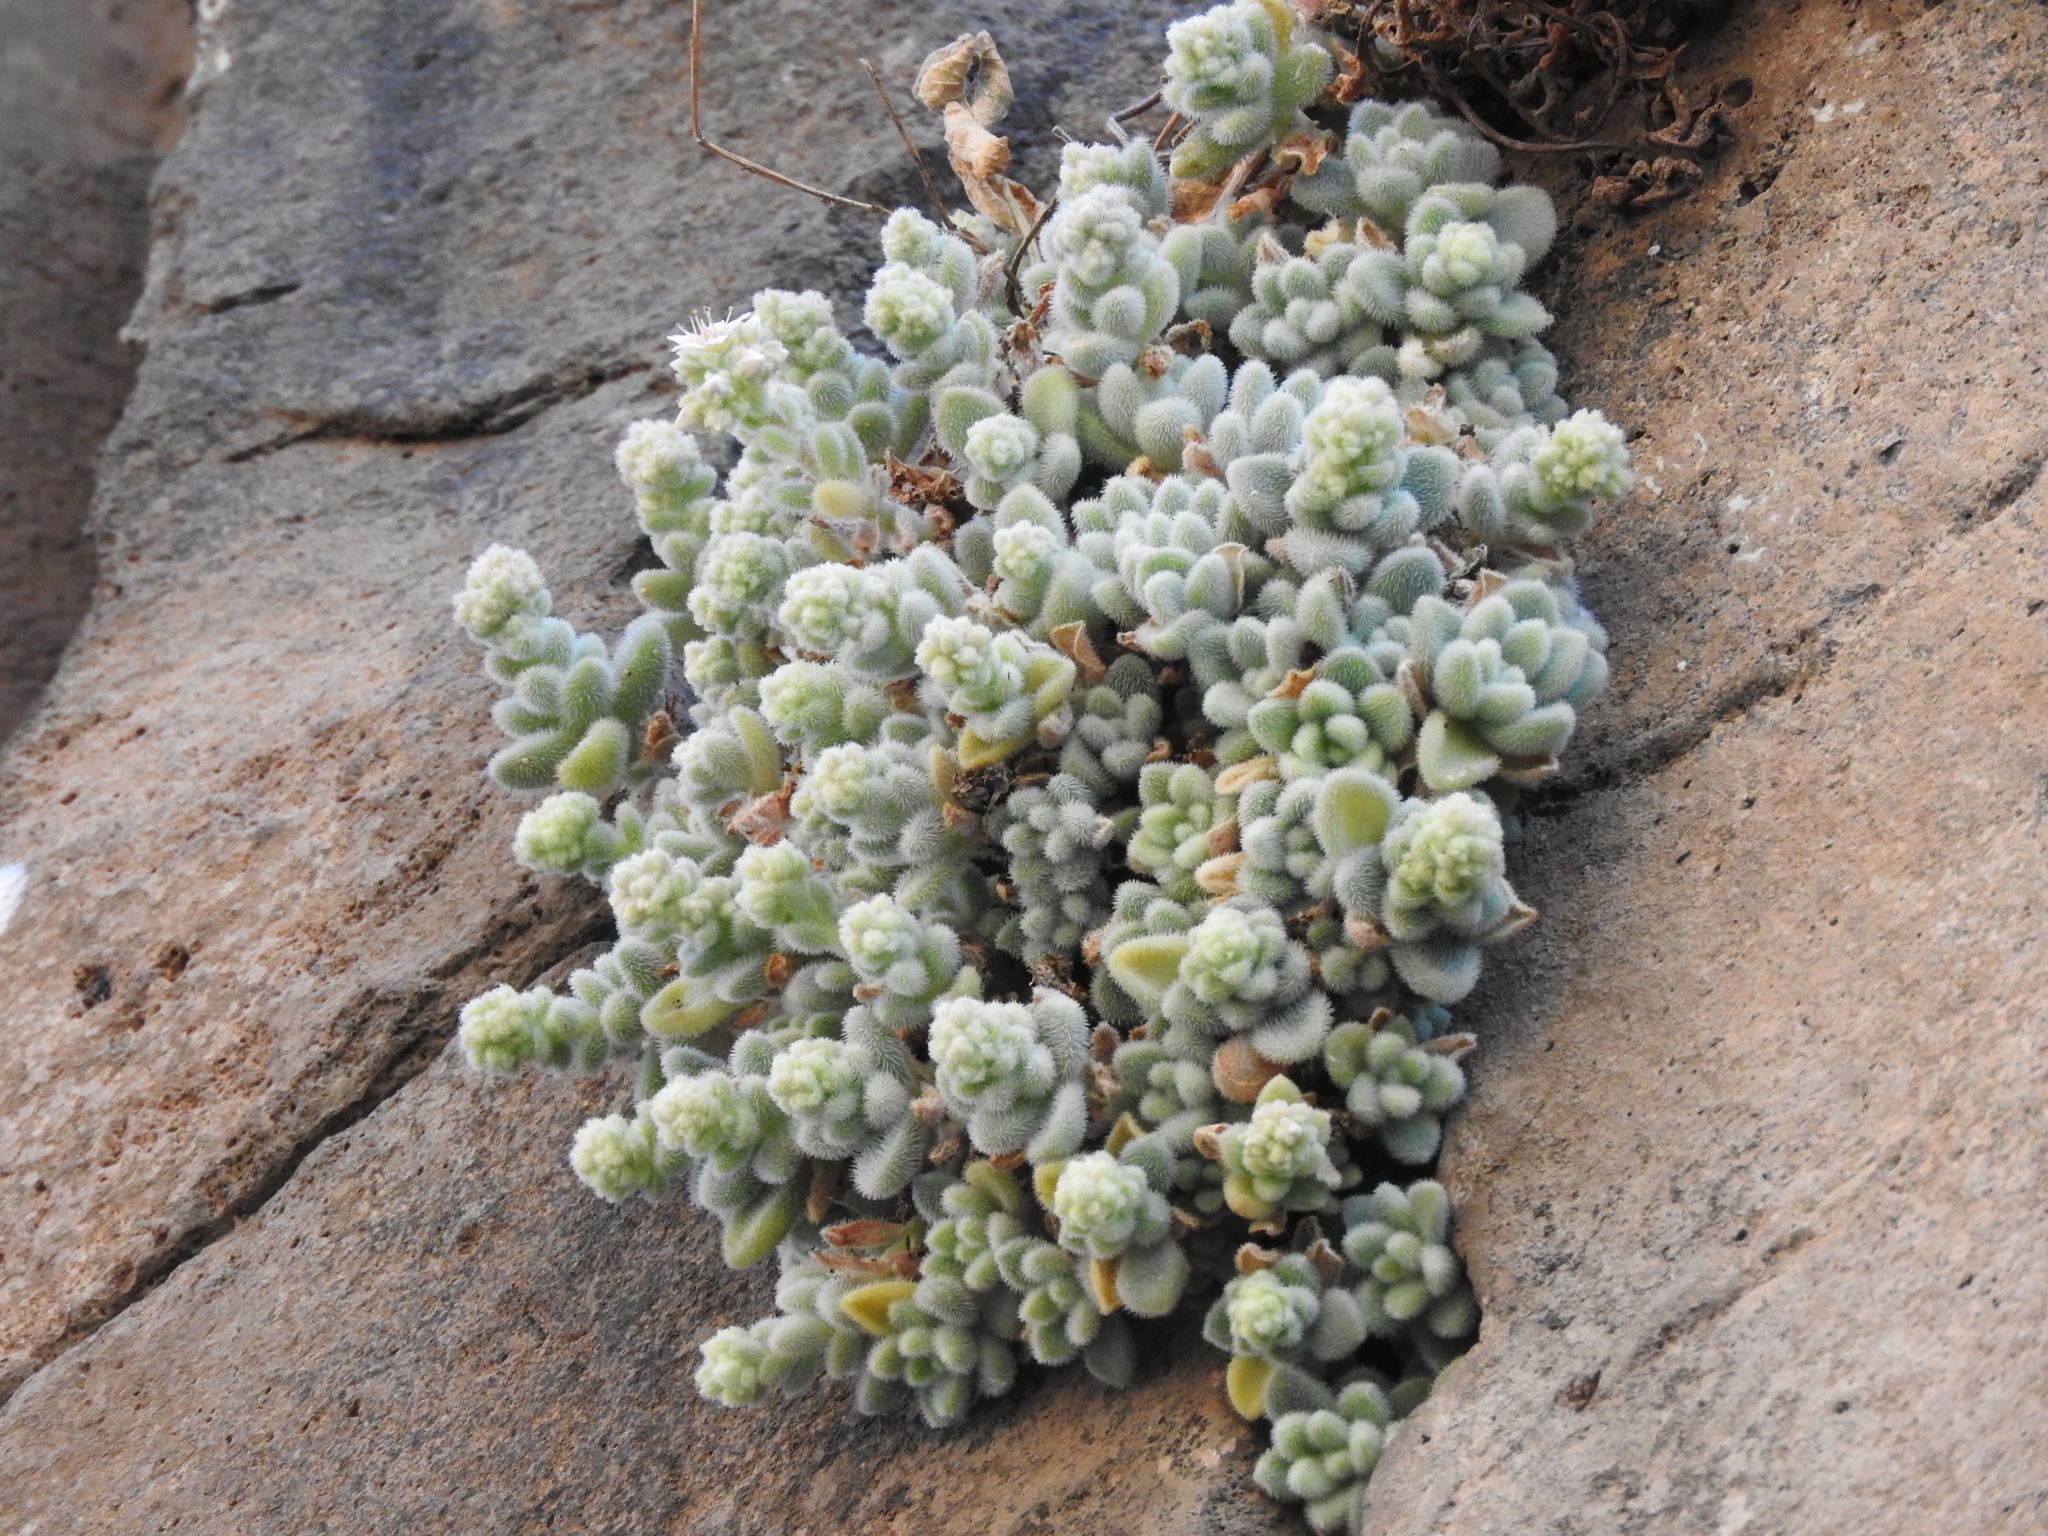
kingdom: Plantae
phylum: Tracheophyta
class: Magnoliopsida
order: Saxifragales
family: Crassulaceae
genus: Sedum
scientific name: Sedum mocinoanum
